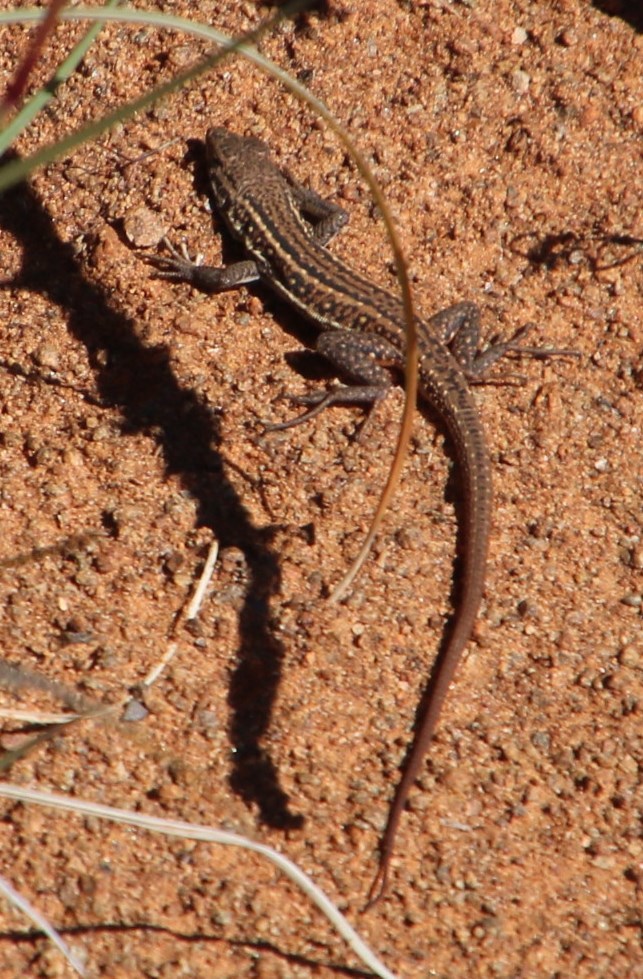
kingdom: Animalia
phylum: Chordata
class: Squamata
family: Lacertidae
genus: Pedioplanis
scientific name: Pedioplanis lineoocellata
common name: Spotted sand lizard
